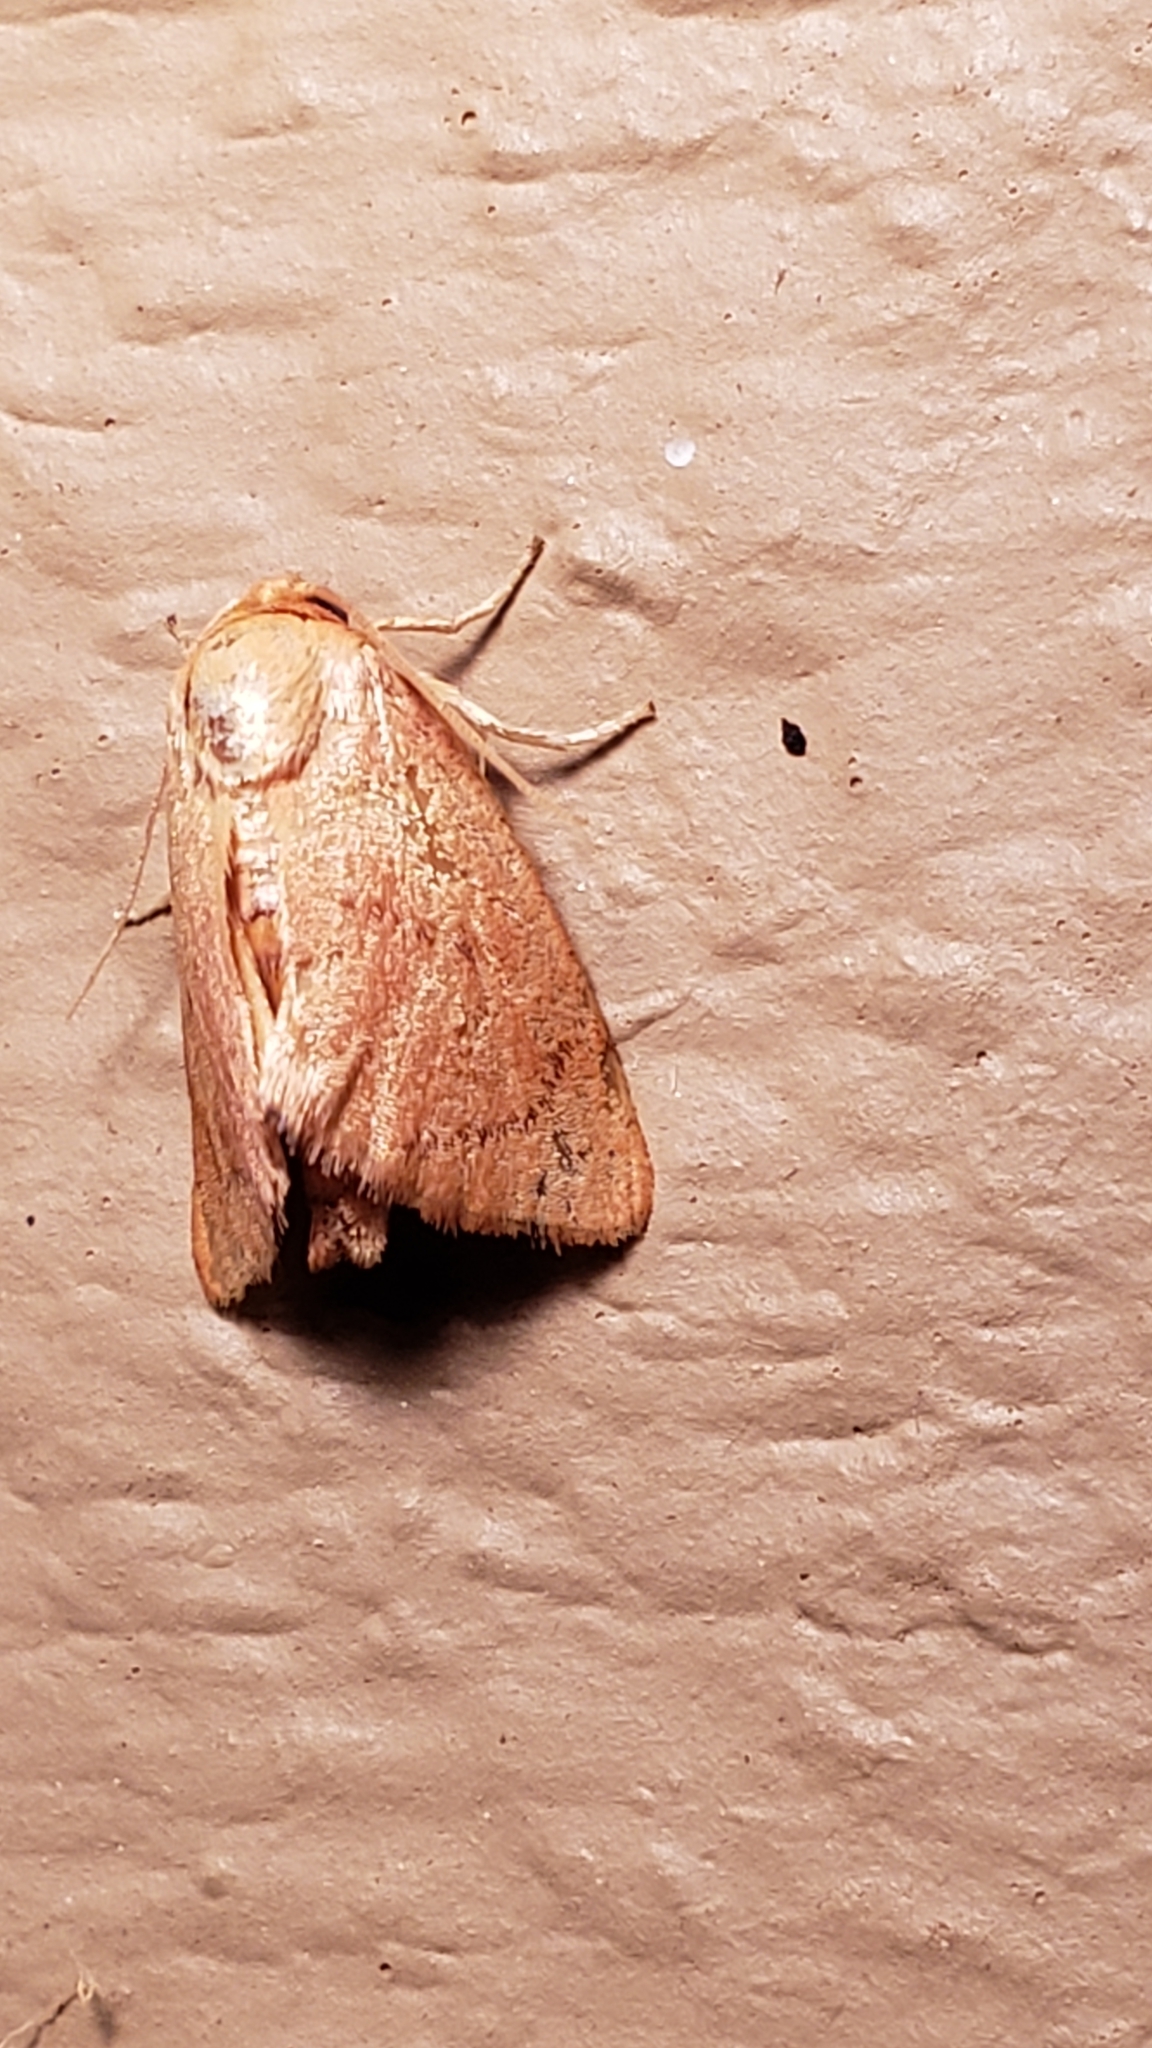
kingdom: Animalia
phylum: Arthropoda
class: Insecta
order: Lepidoptera
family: Limacodidae
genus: Tortricidia
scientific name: Tortricidia pallida
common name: Red-crossed button slug moth
